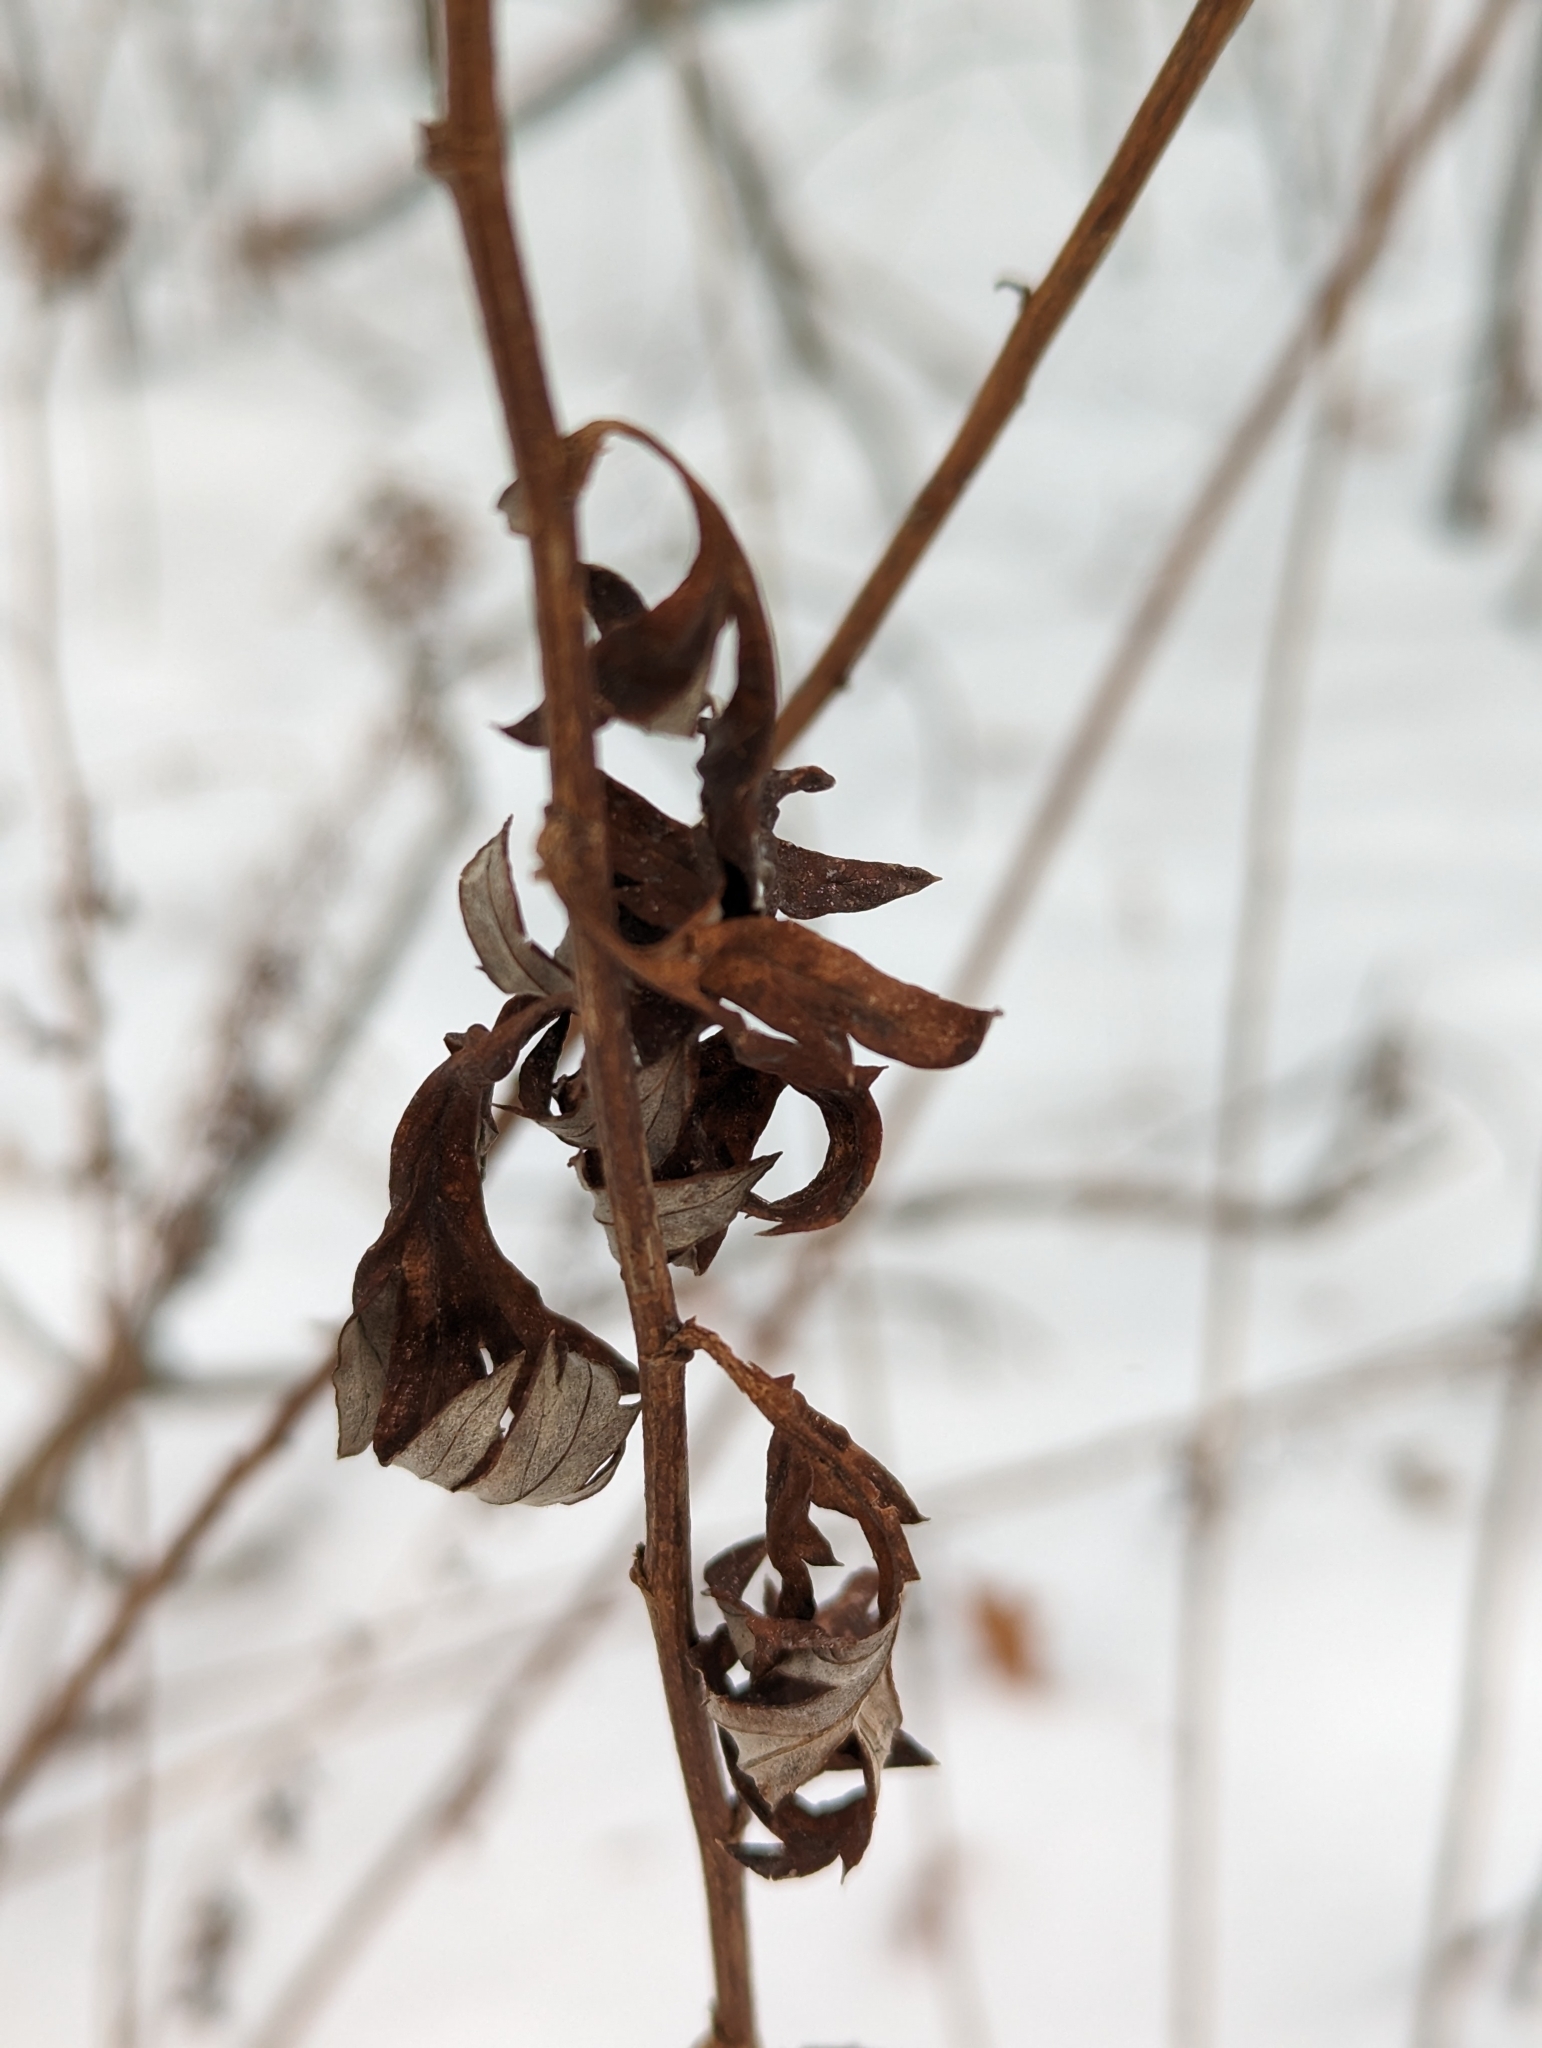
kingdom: Plantae
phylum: Tracheophyta
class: Magnoliopsida
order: Asterales
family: Asteraceae
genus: Artemisia
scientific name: Artemisia vulgaris
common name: Mugwort
